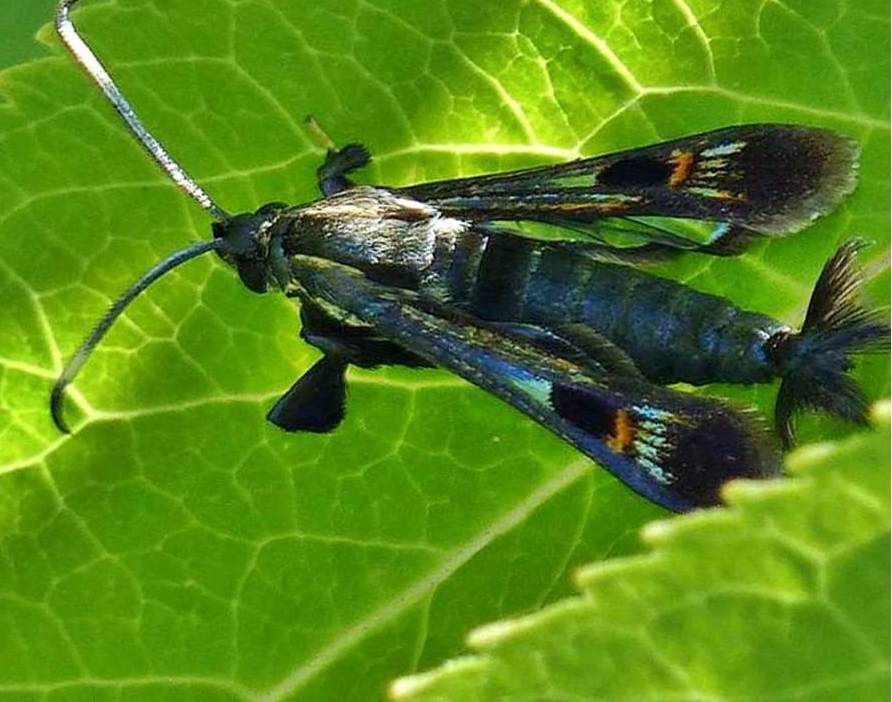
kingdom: Animalia
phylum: Arthropoda
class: Insecta
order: Lepidoptera
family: Sesiidae
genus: Albuna
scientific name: Albuna fraxini
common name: Virginia creeper clearwing
